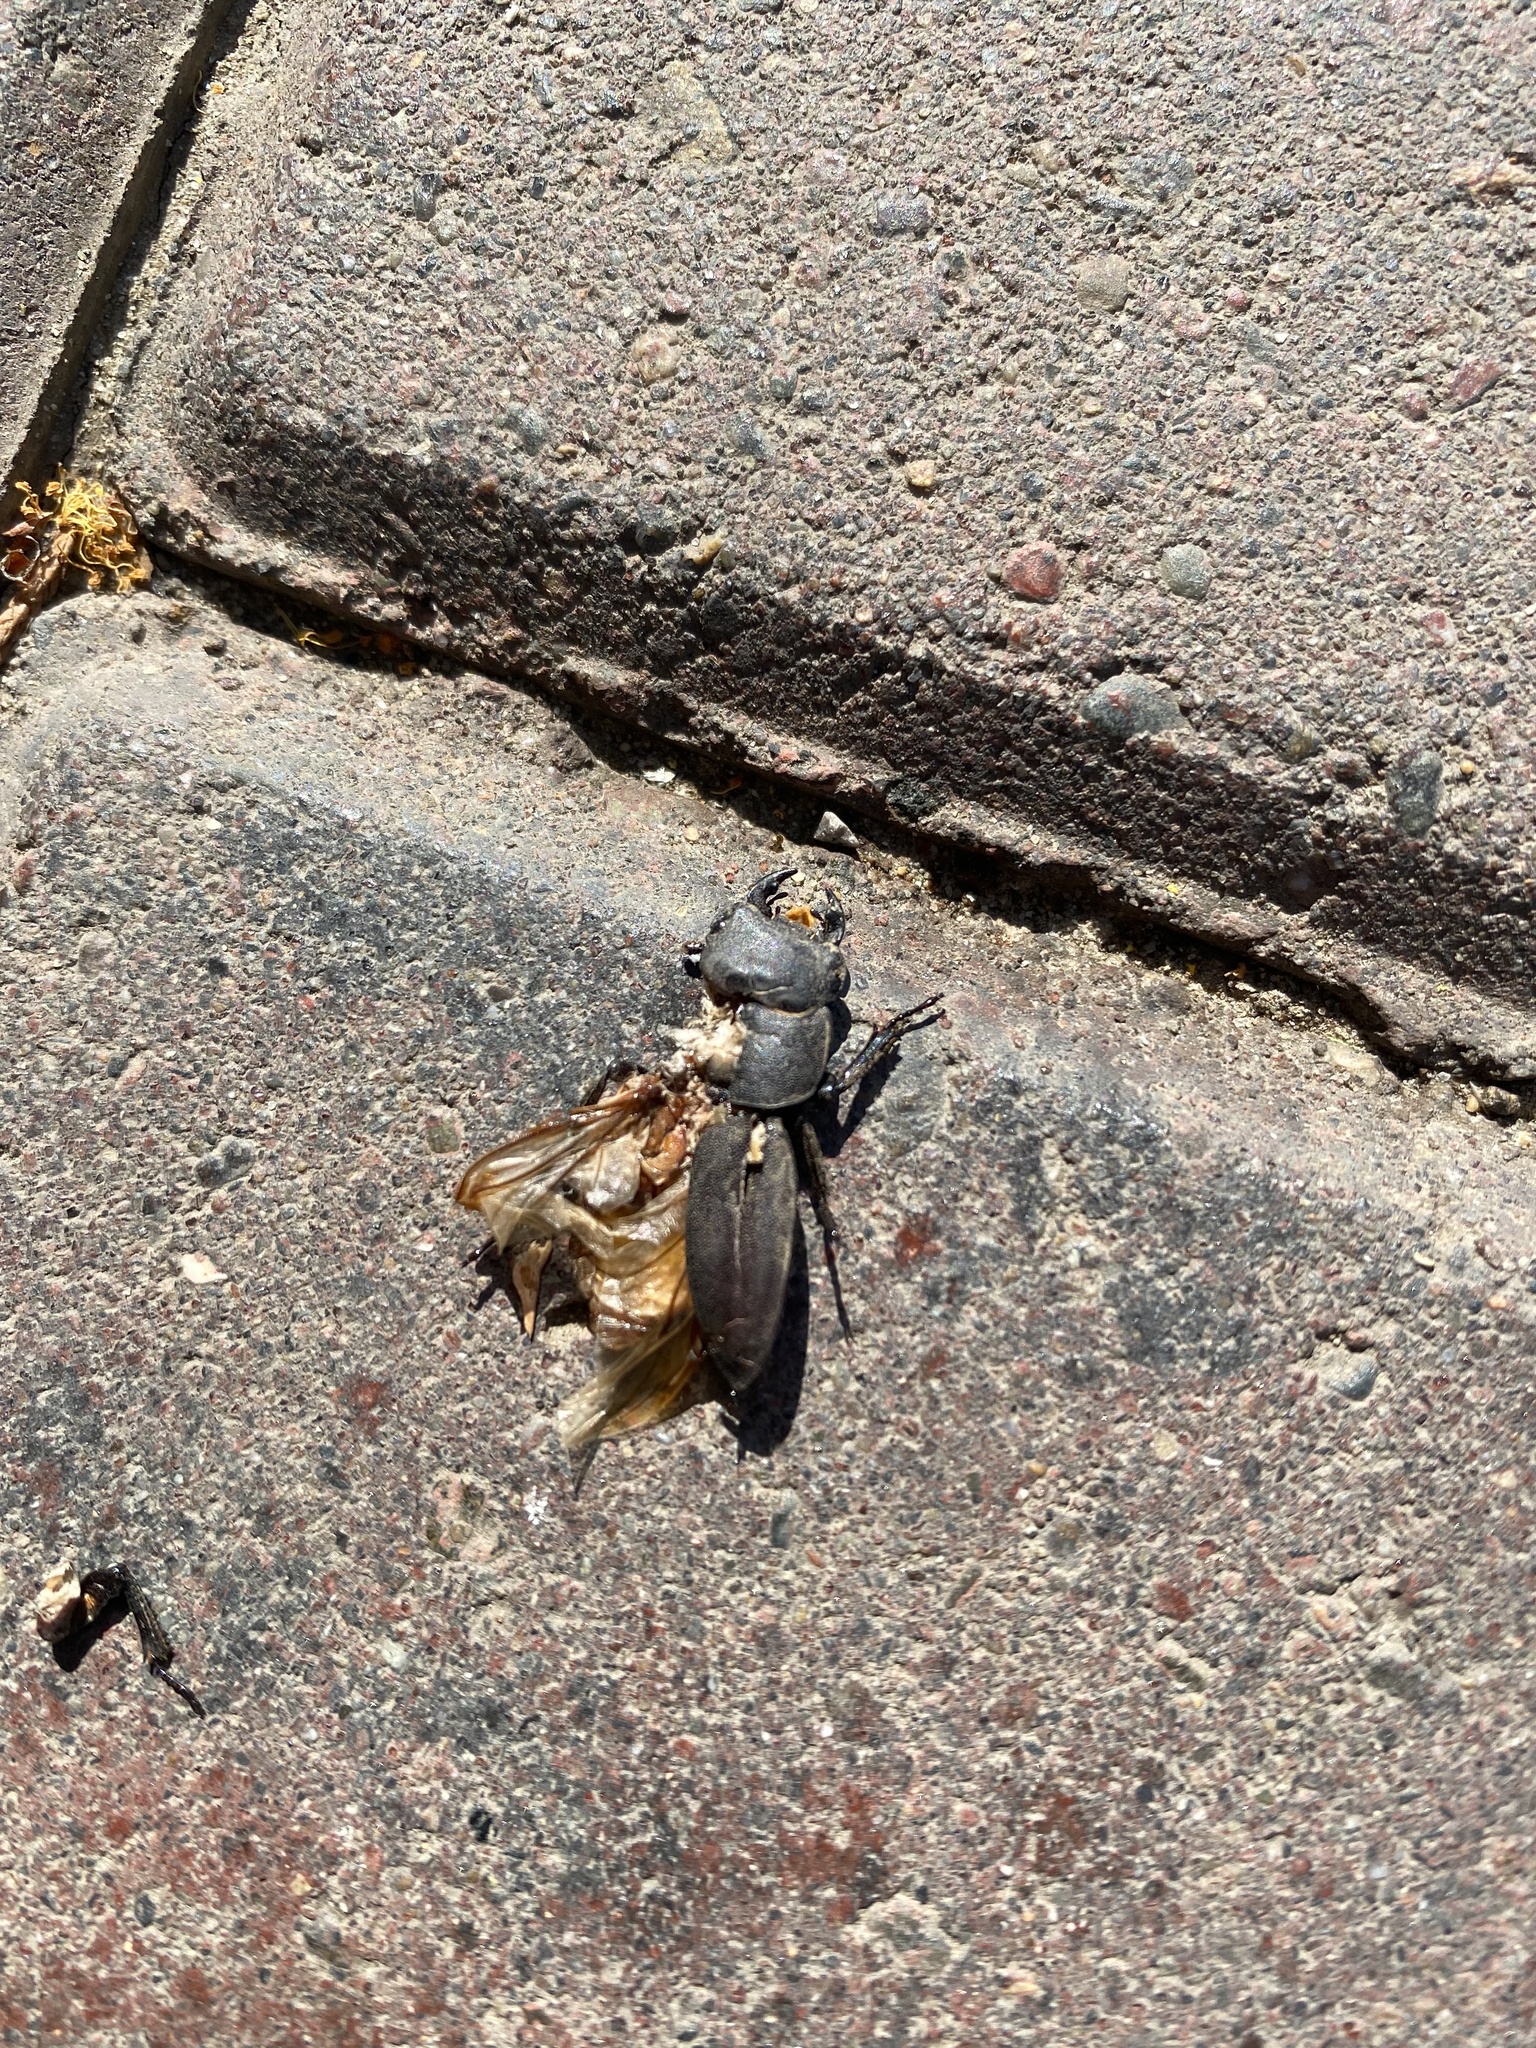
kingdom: Animalia
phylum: Arthropoda
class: Insecta
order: Coleoptera
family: Lucanidae
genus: Dorcus
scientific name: Dorcus parallelipipedus
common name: Lesser stag beetle
